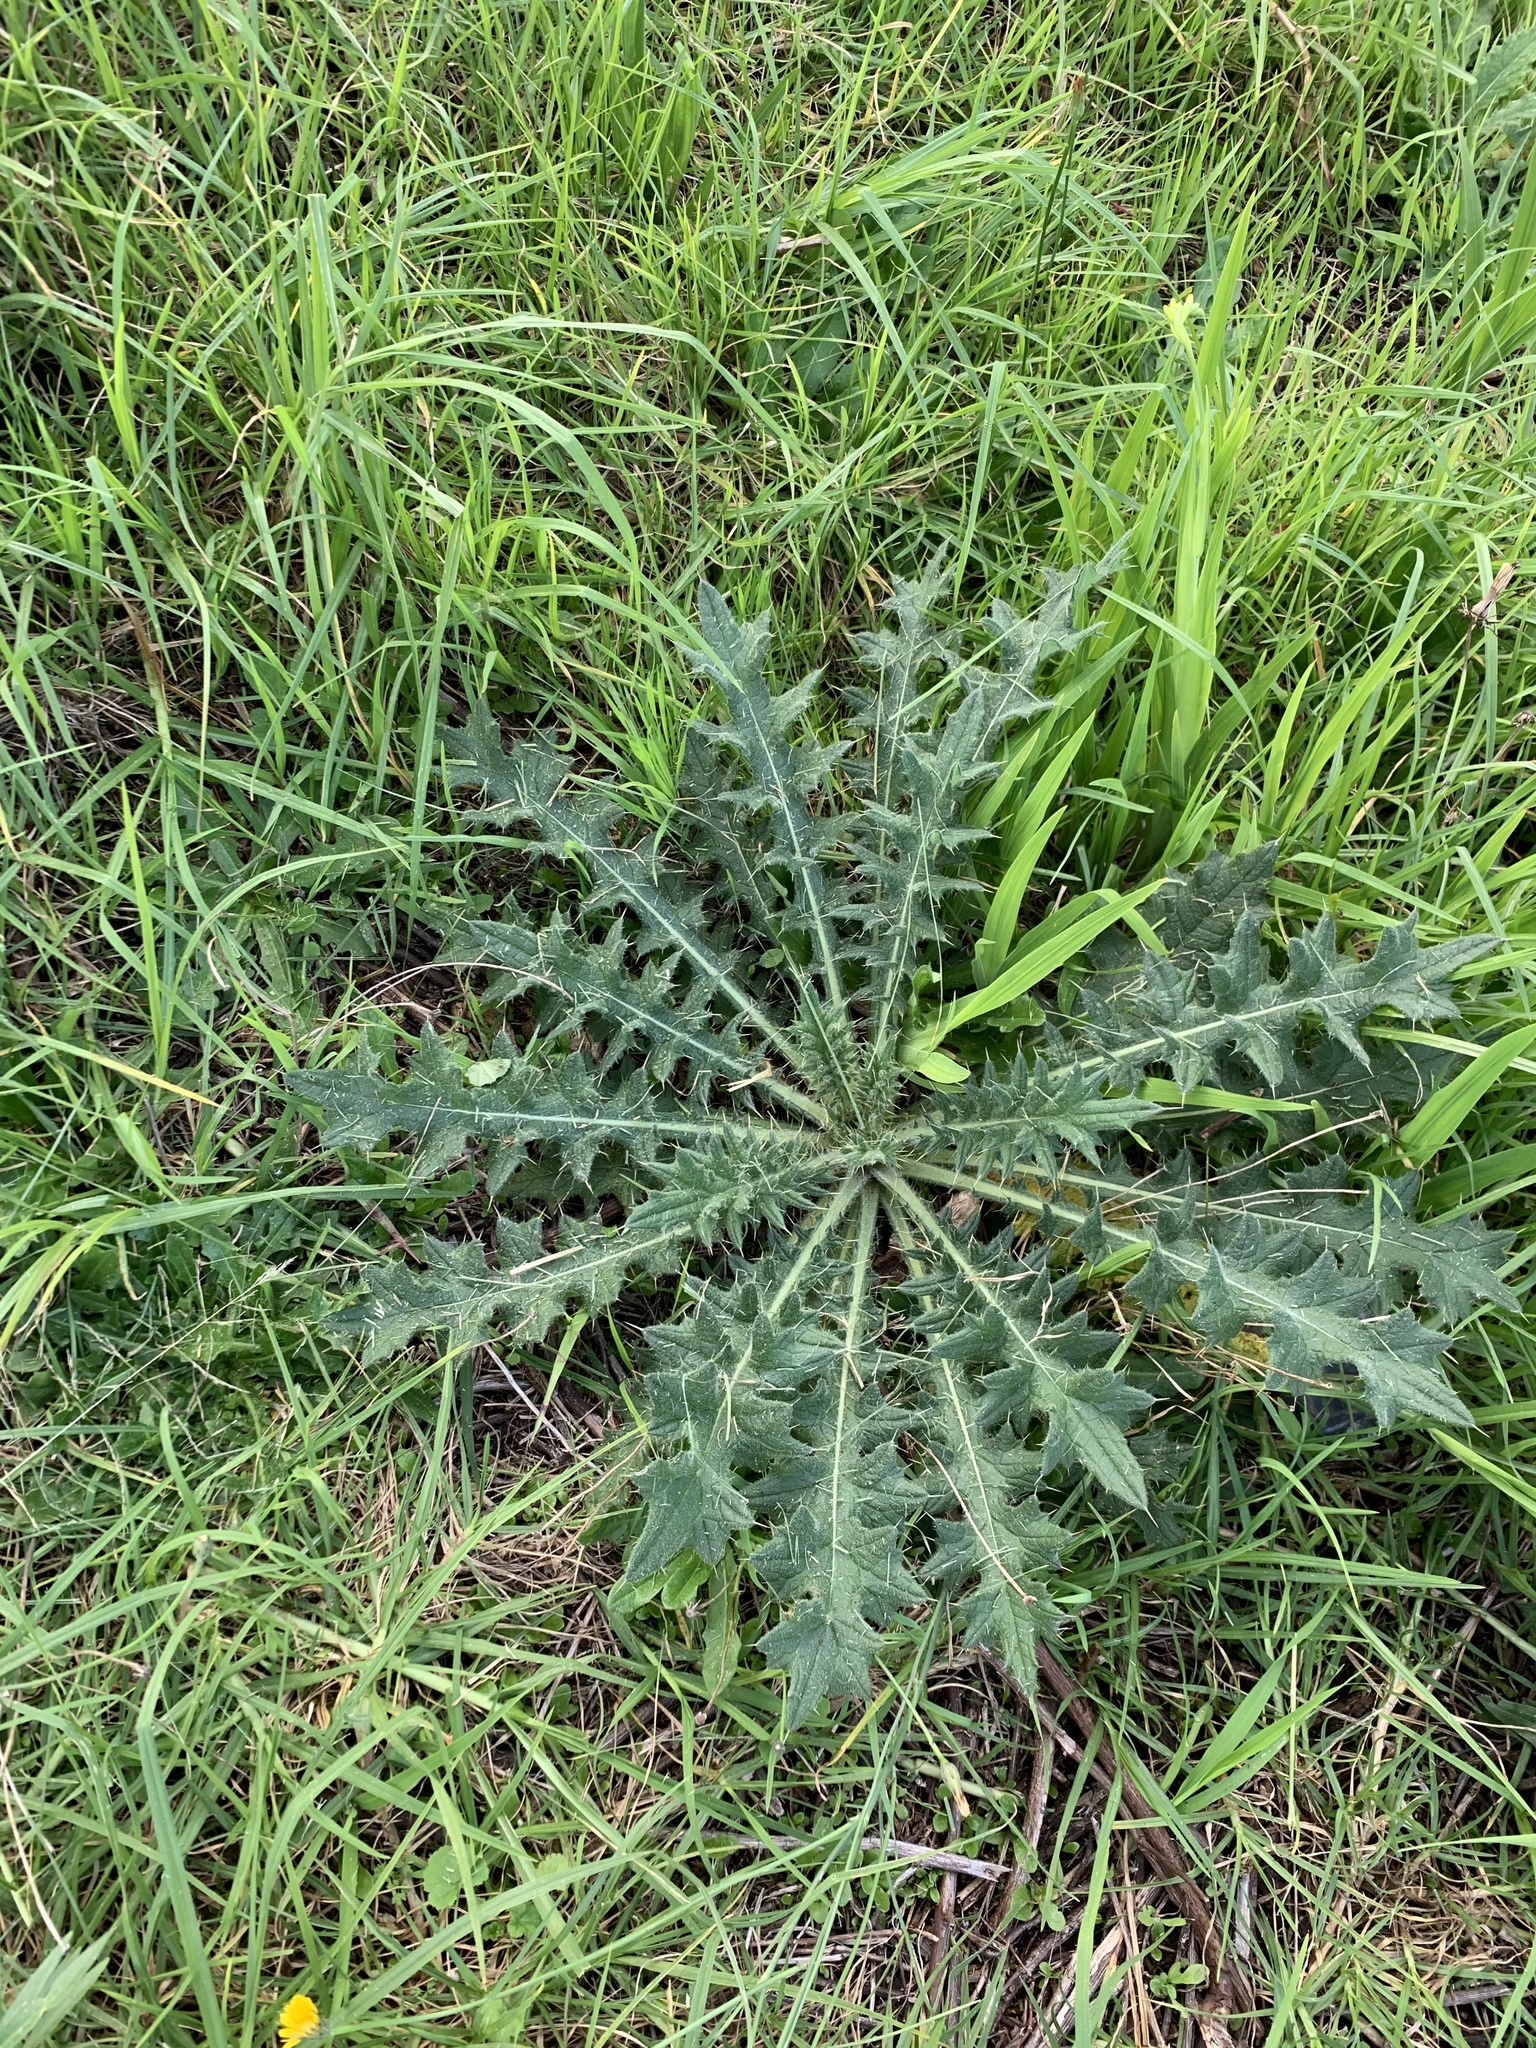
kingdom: Plantae
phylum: Tracheophyta
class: Magnoliopsida
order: Asterales
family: Asteraceae
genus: Cirsium
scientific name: Cirsium vulgare
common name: Bull thistle
